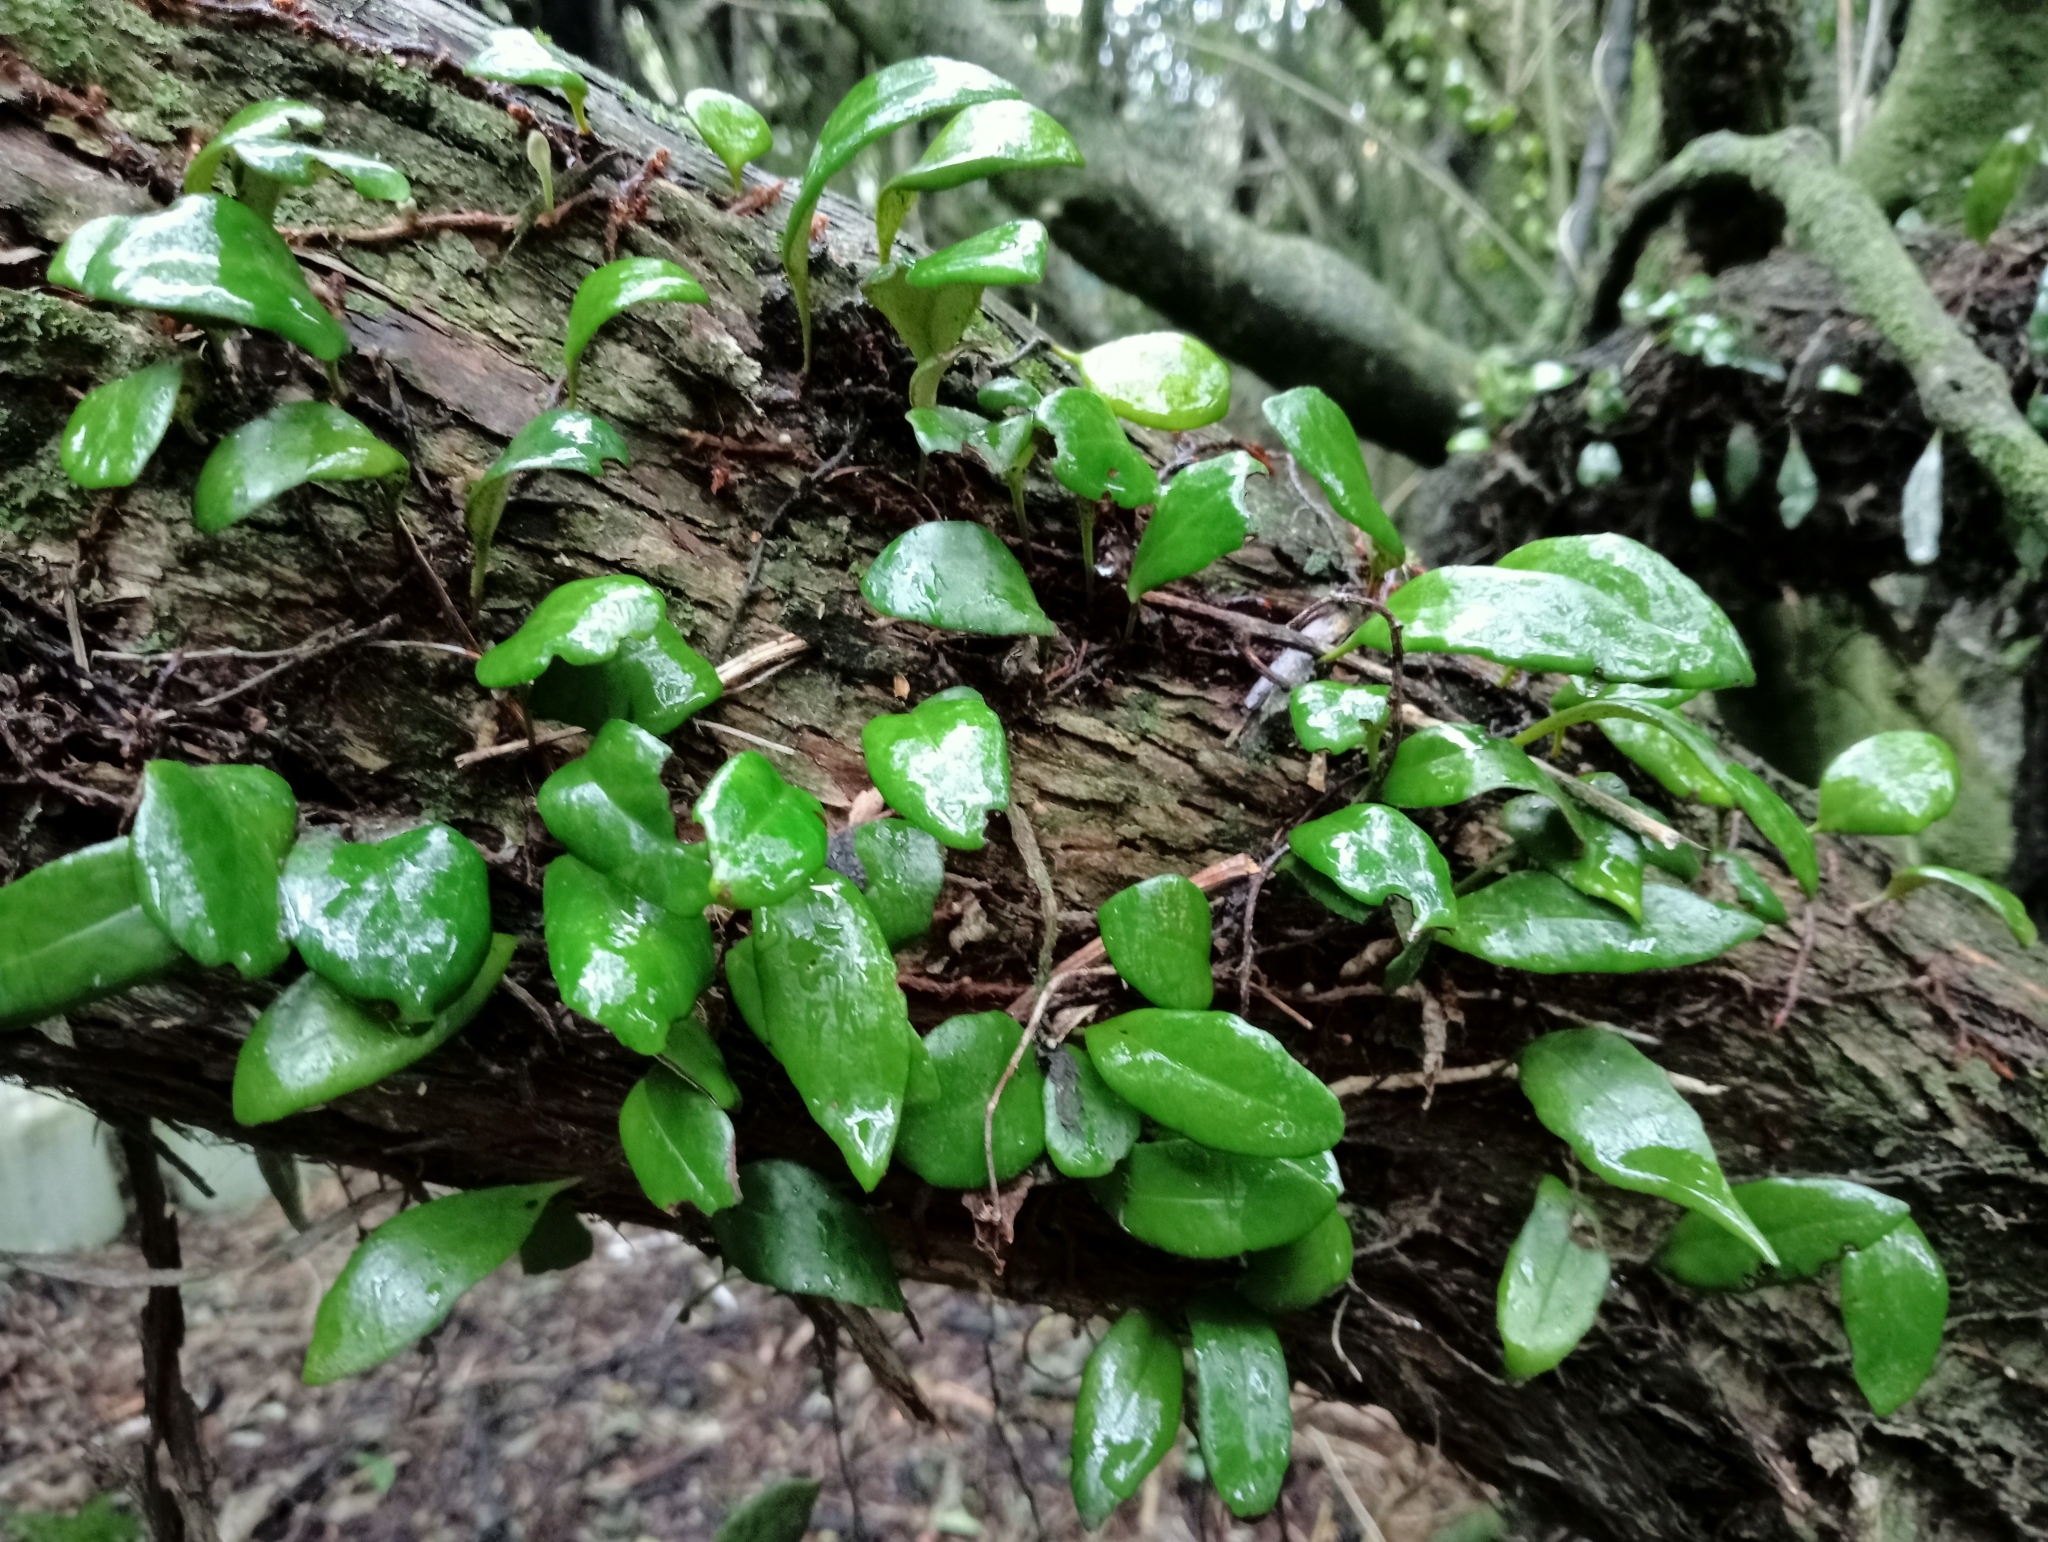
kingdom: Plantae
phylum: Tracheophyta
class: Polypodiopsida
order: Polypodiales
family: Polypodiaceae
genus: Pyrrosia
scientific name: Pyrrosia eleagnifolia
